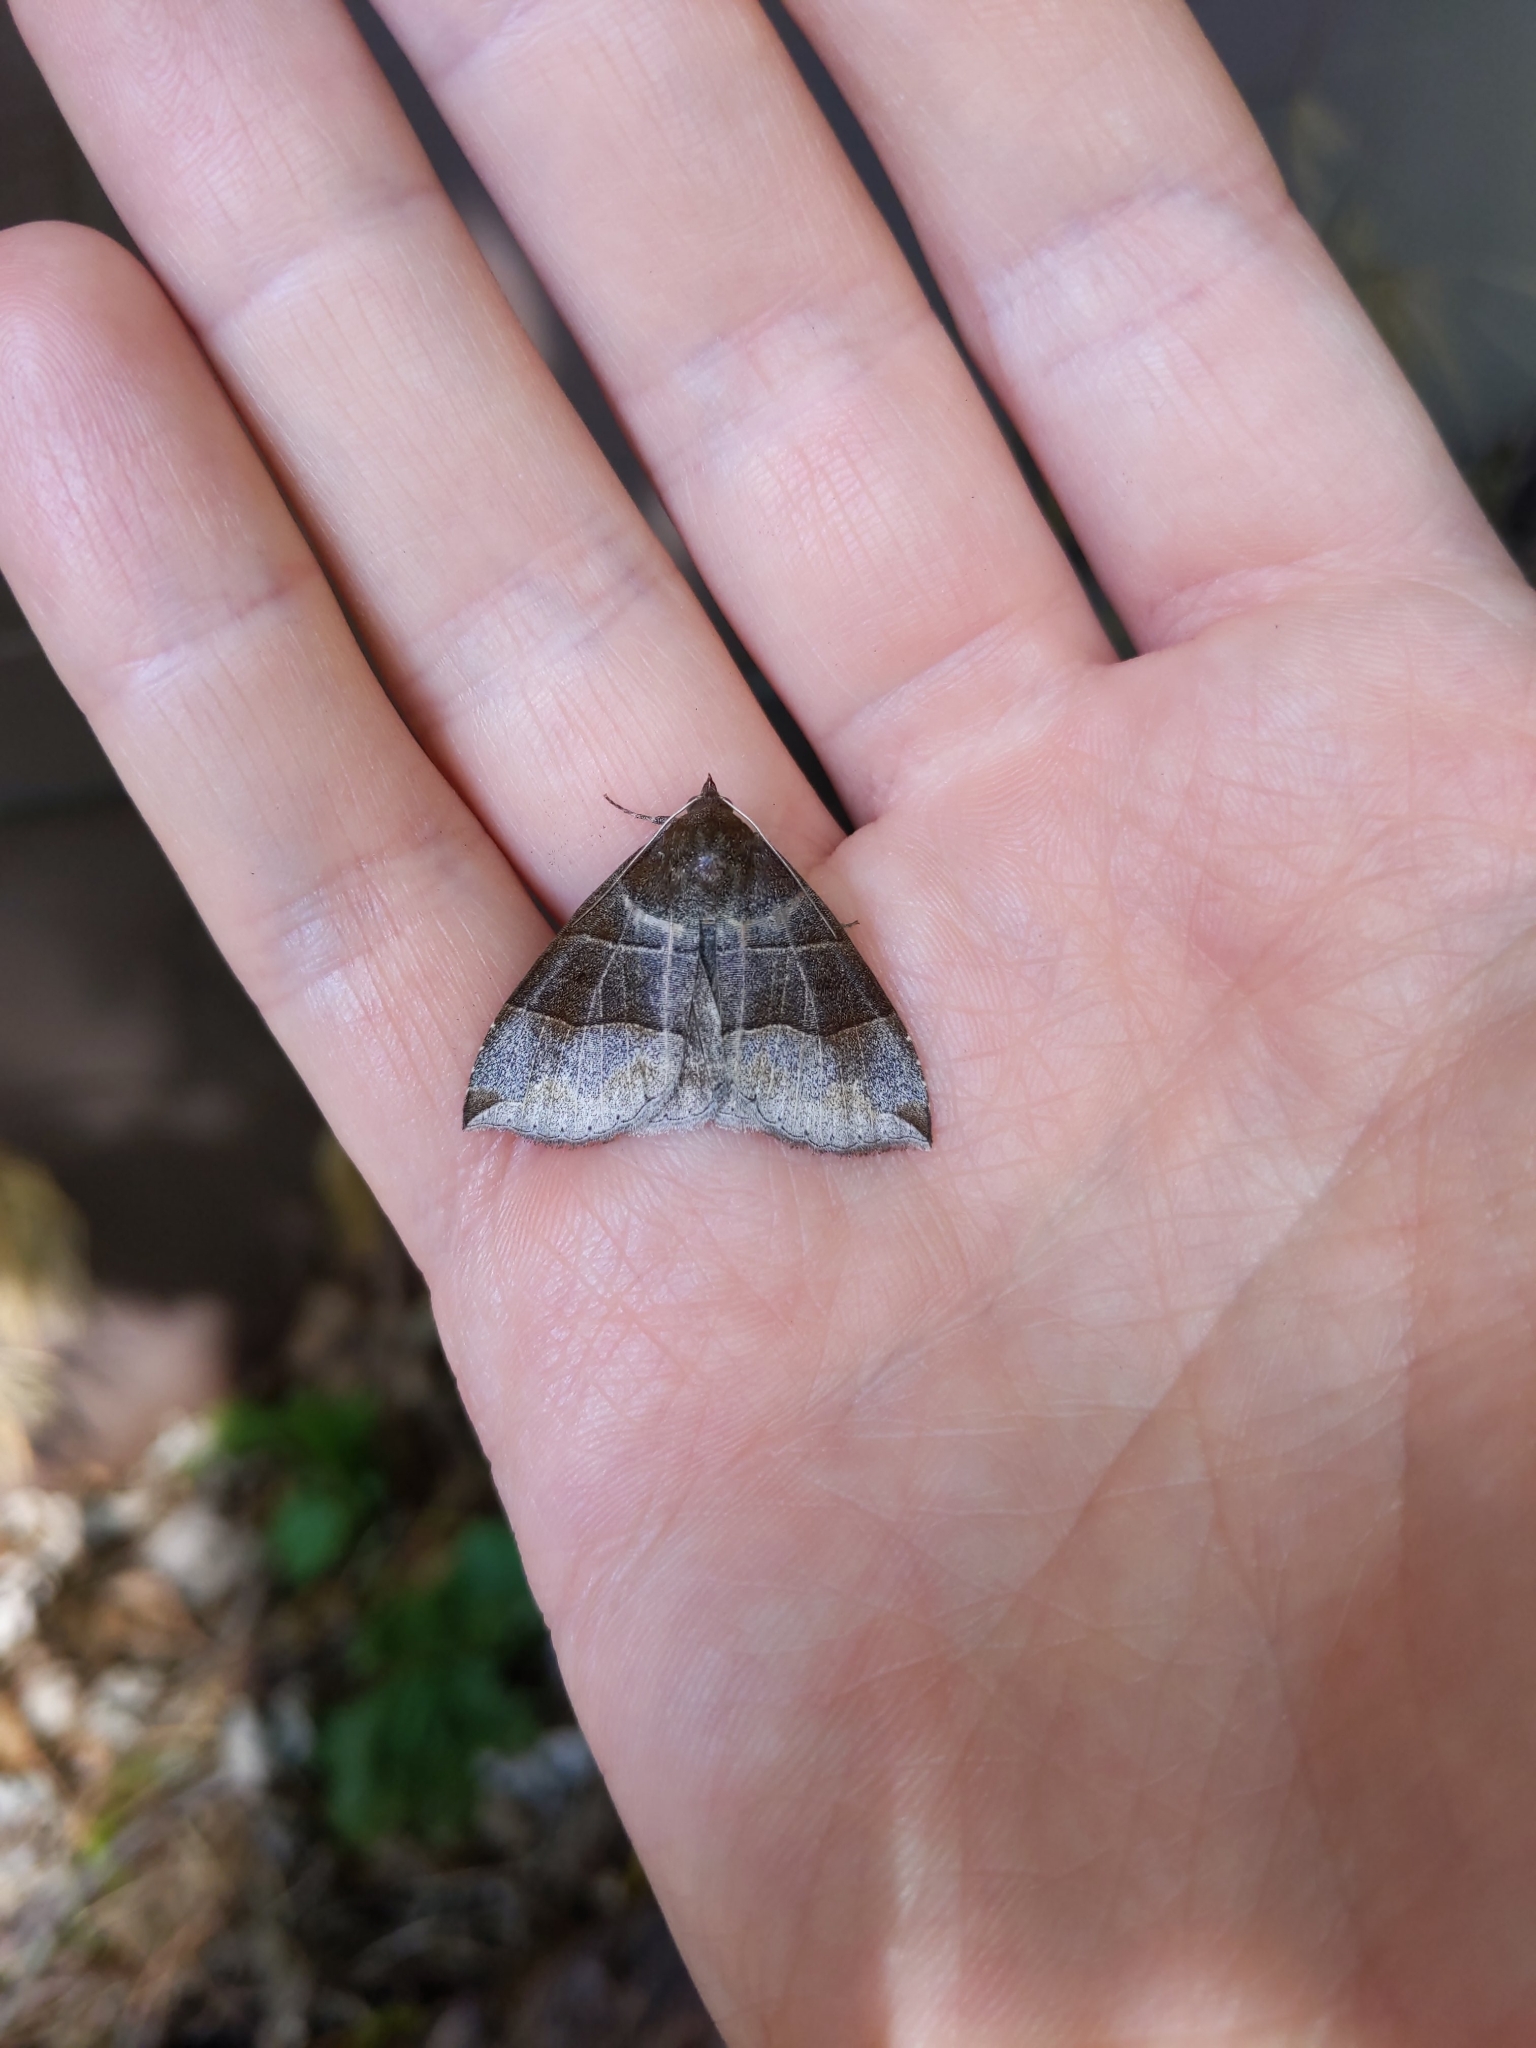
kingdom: Animalia
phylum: Arthropoda
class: Insecta
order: Lepidoptera
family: Erebidae
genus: Parallelia
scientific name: Parallelia bistriaris
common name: Maple looper moth
